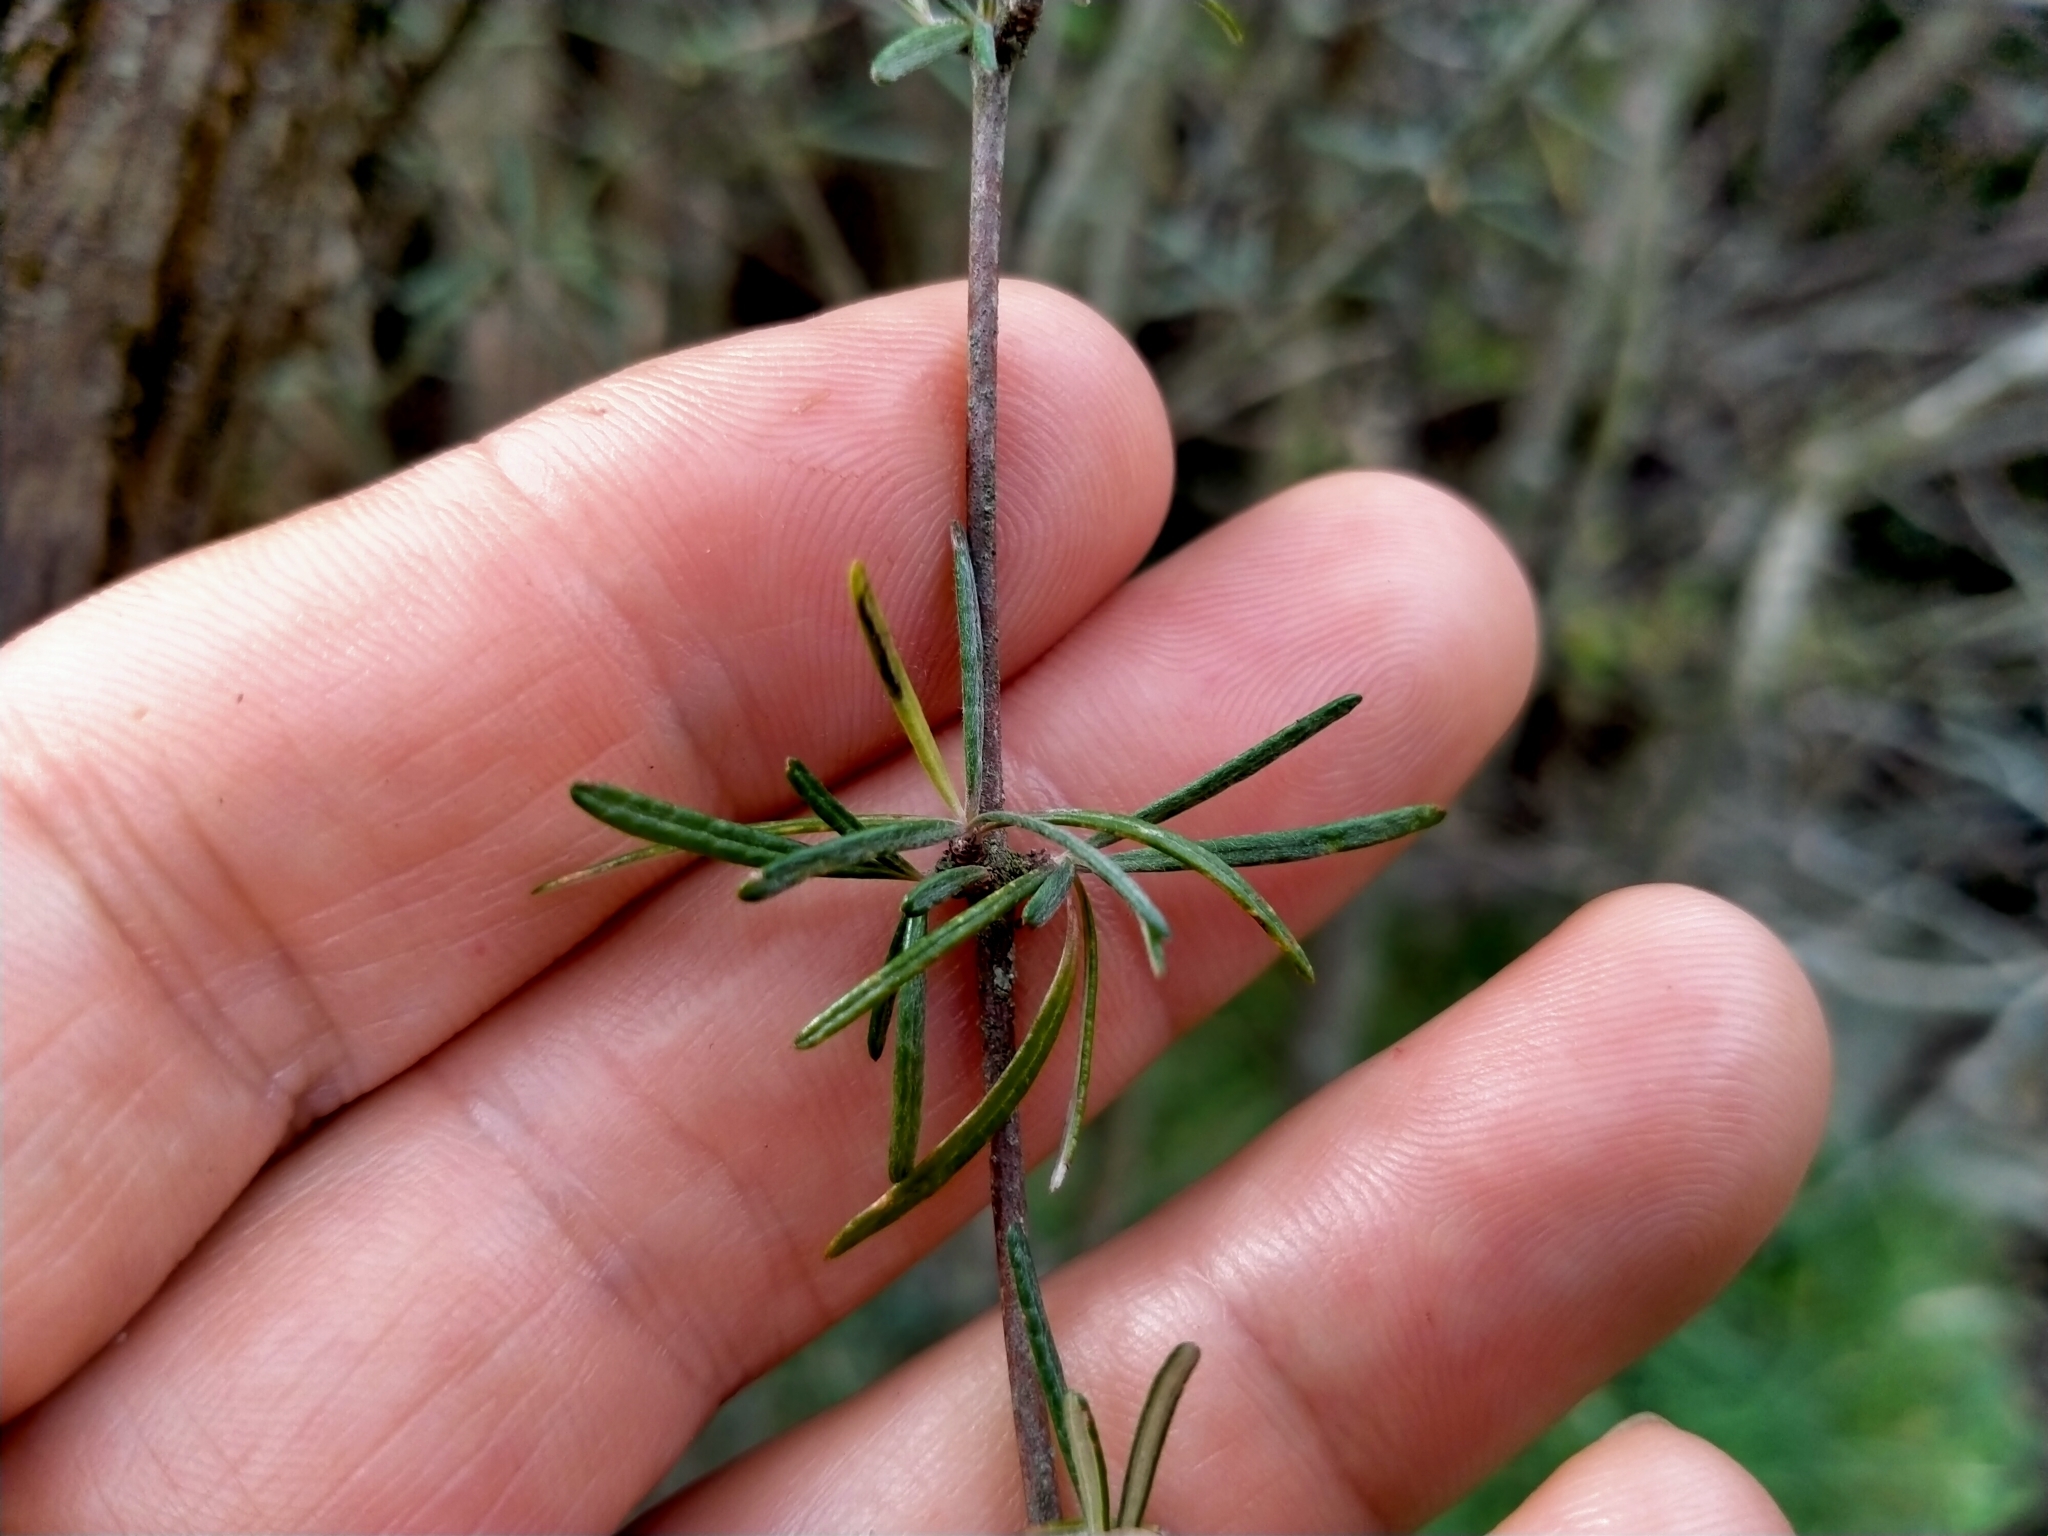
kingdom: Plantae
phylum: Tracheophyta
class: Magnoliopsida
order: Asterales
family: Asteraceae
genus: Olearia
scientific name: Olearia lineata
